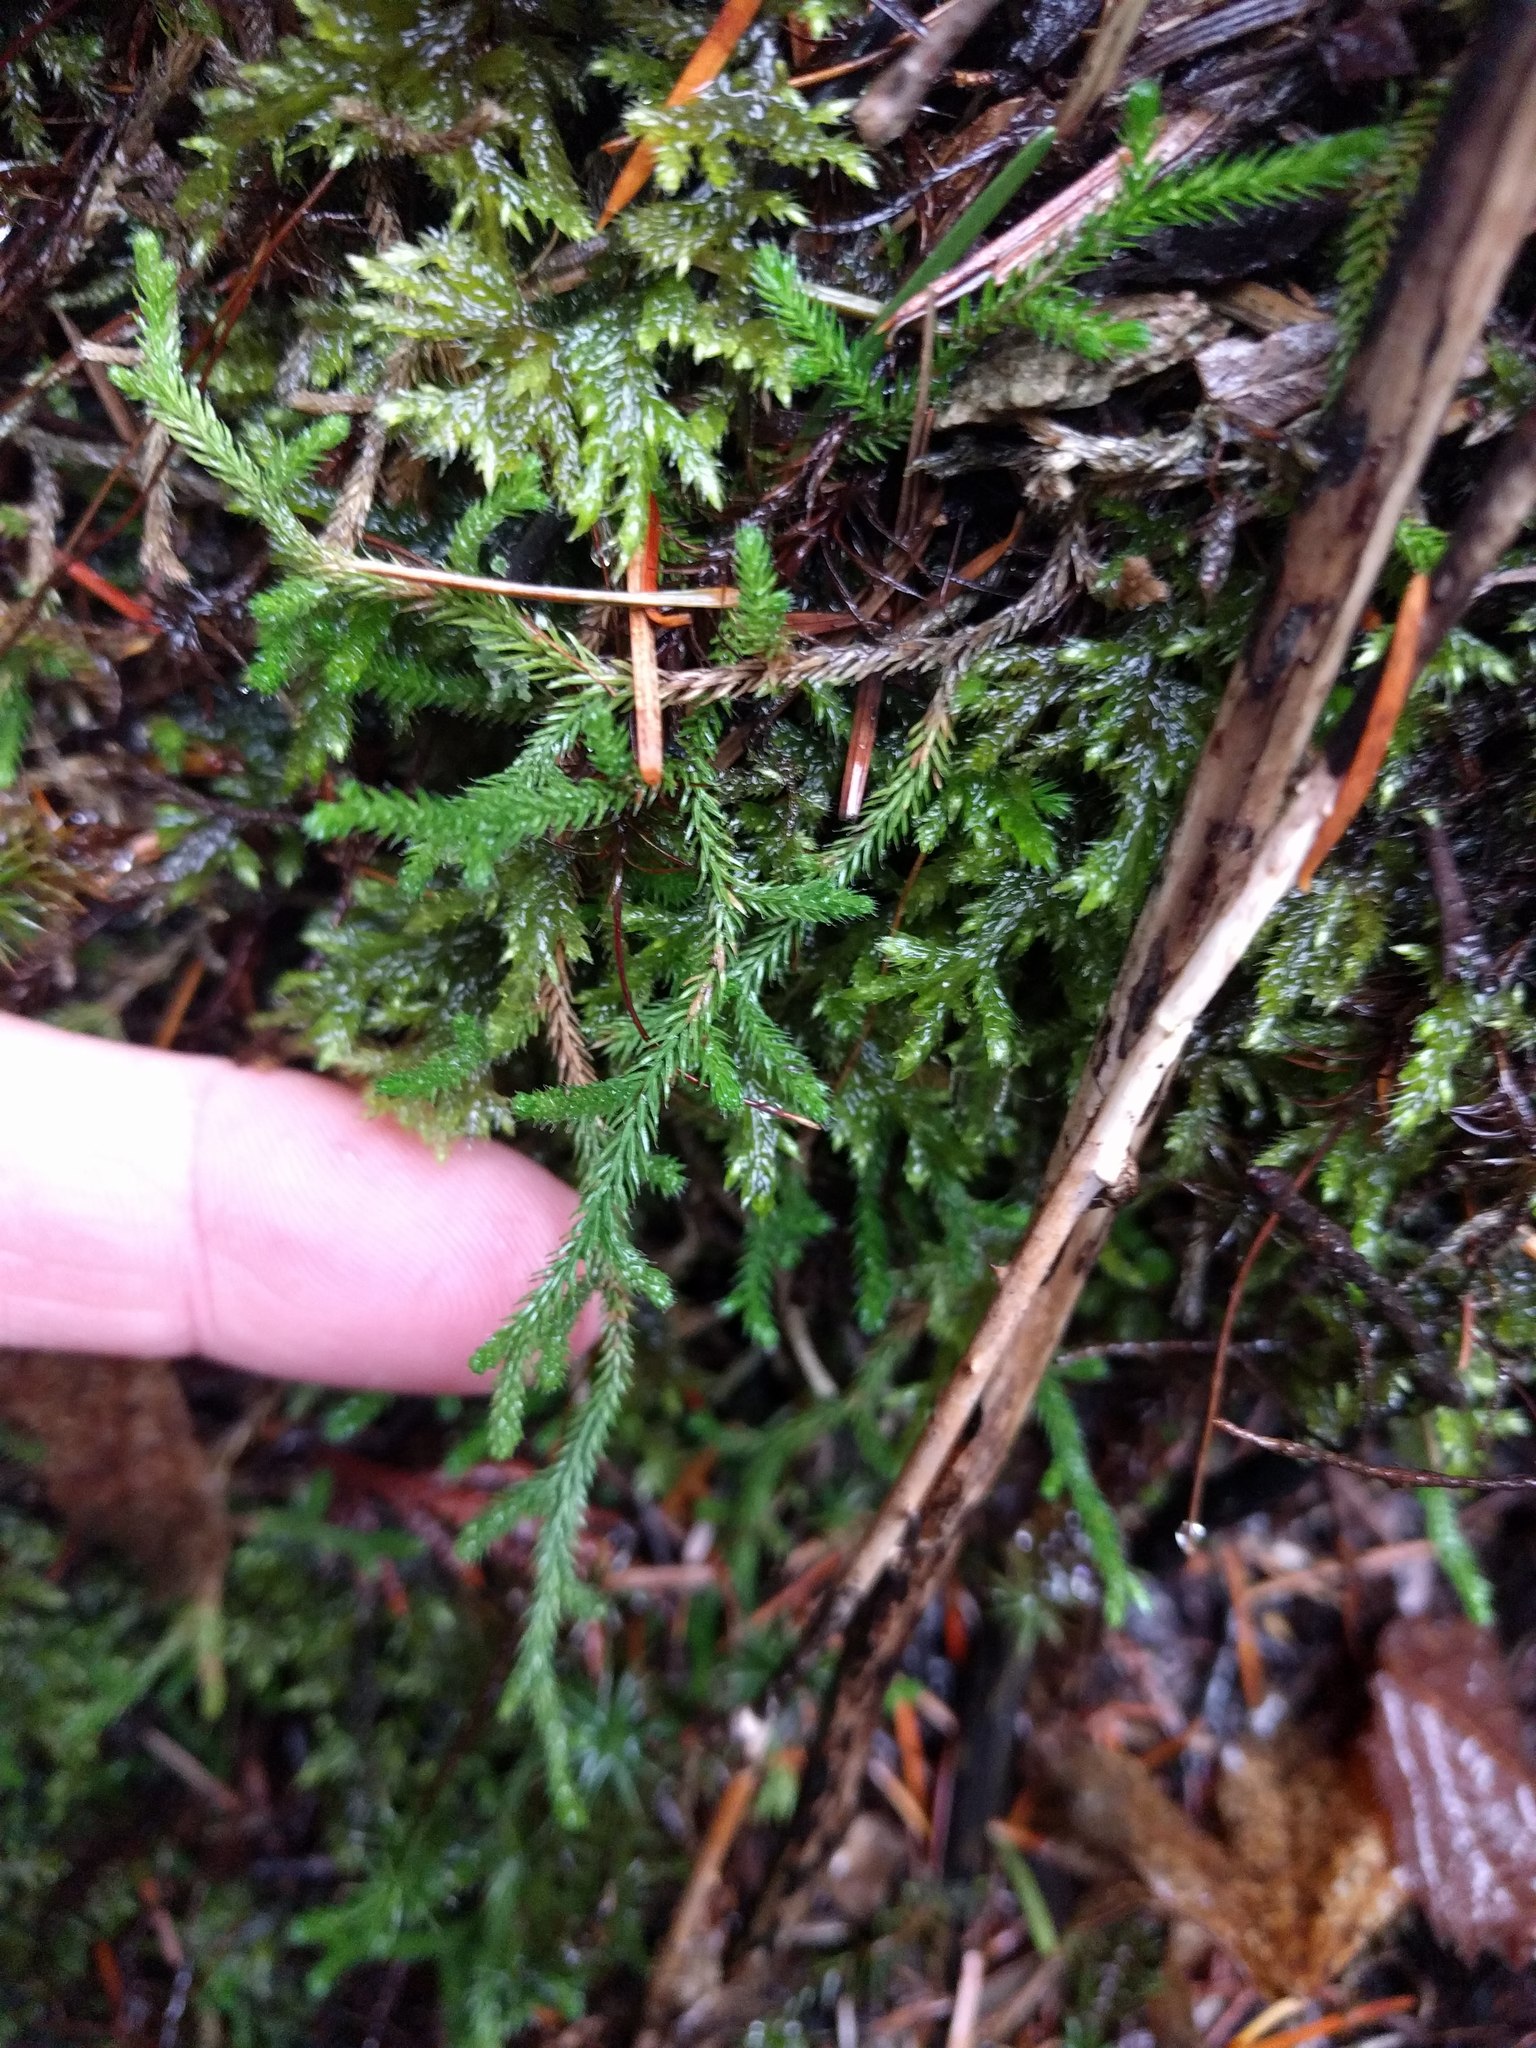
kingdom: Plantae
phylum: Tracheophyta
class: Lycopodiopsida
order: Selaginellales
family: Selaginellaceae
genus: Selaginella
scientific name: Selaginella wallacei
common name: Wallace's selaginella
